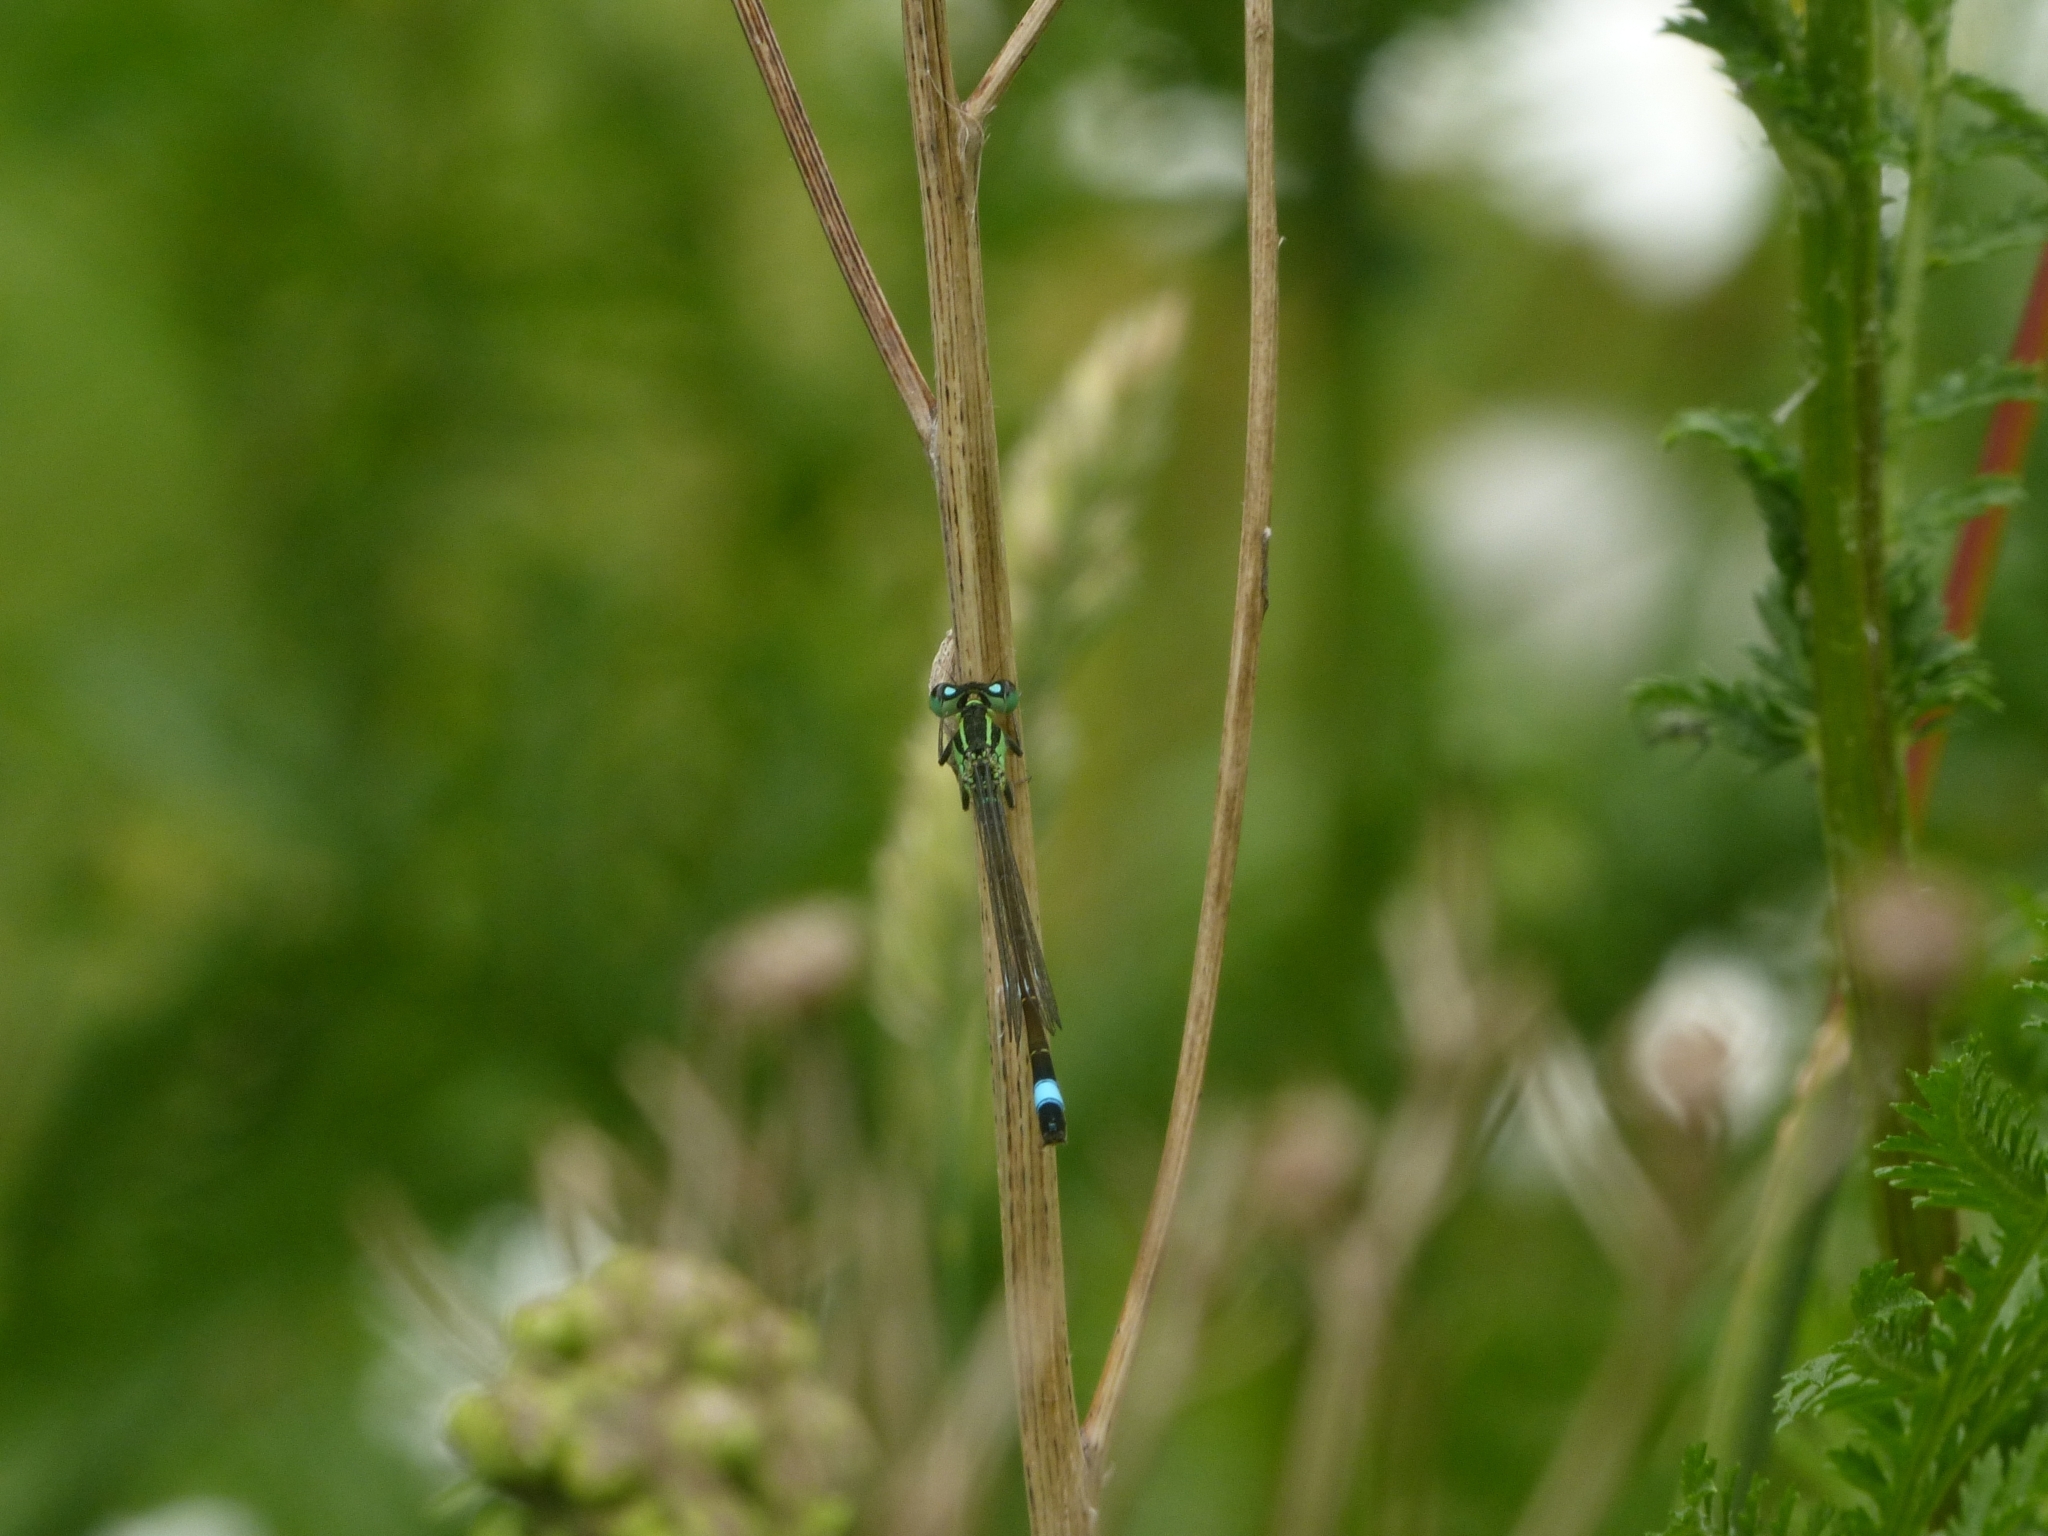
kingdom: Animalia
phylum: Arthropoda
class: Insecta
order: Odonata
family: Coenagrionidae
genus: Ischnura
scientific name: Ischnura elegans
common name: Blue-tailed damselfly
